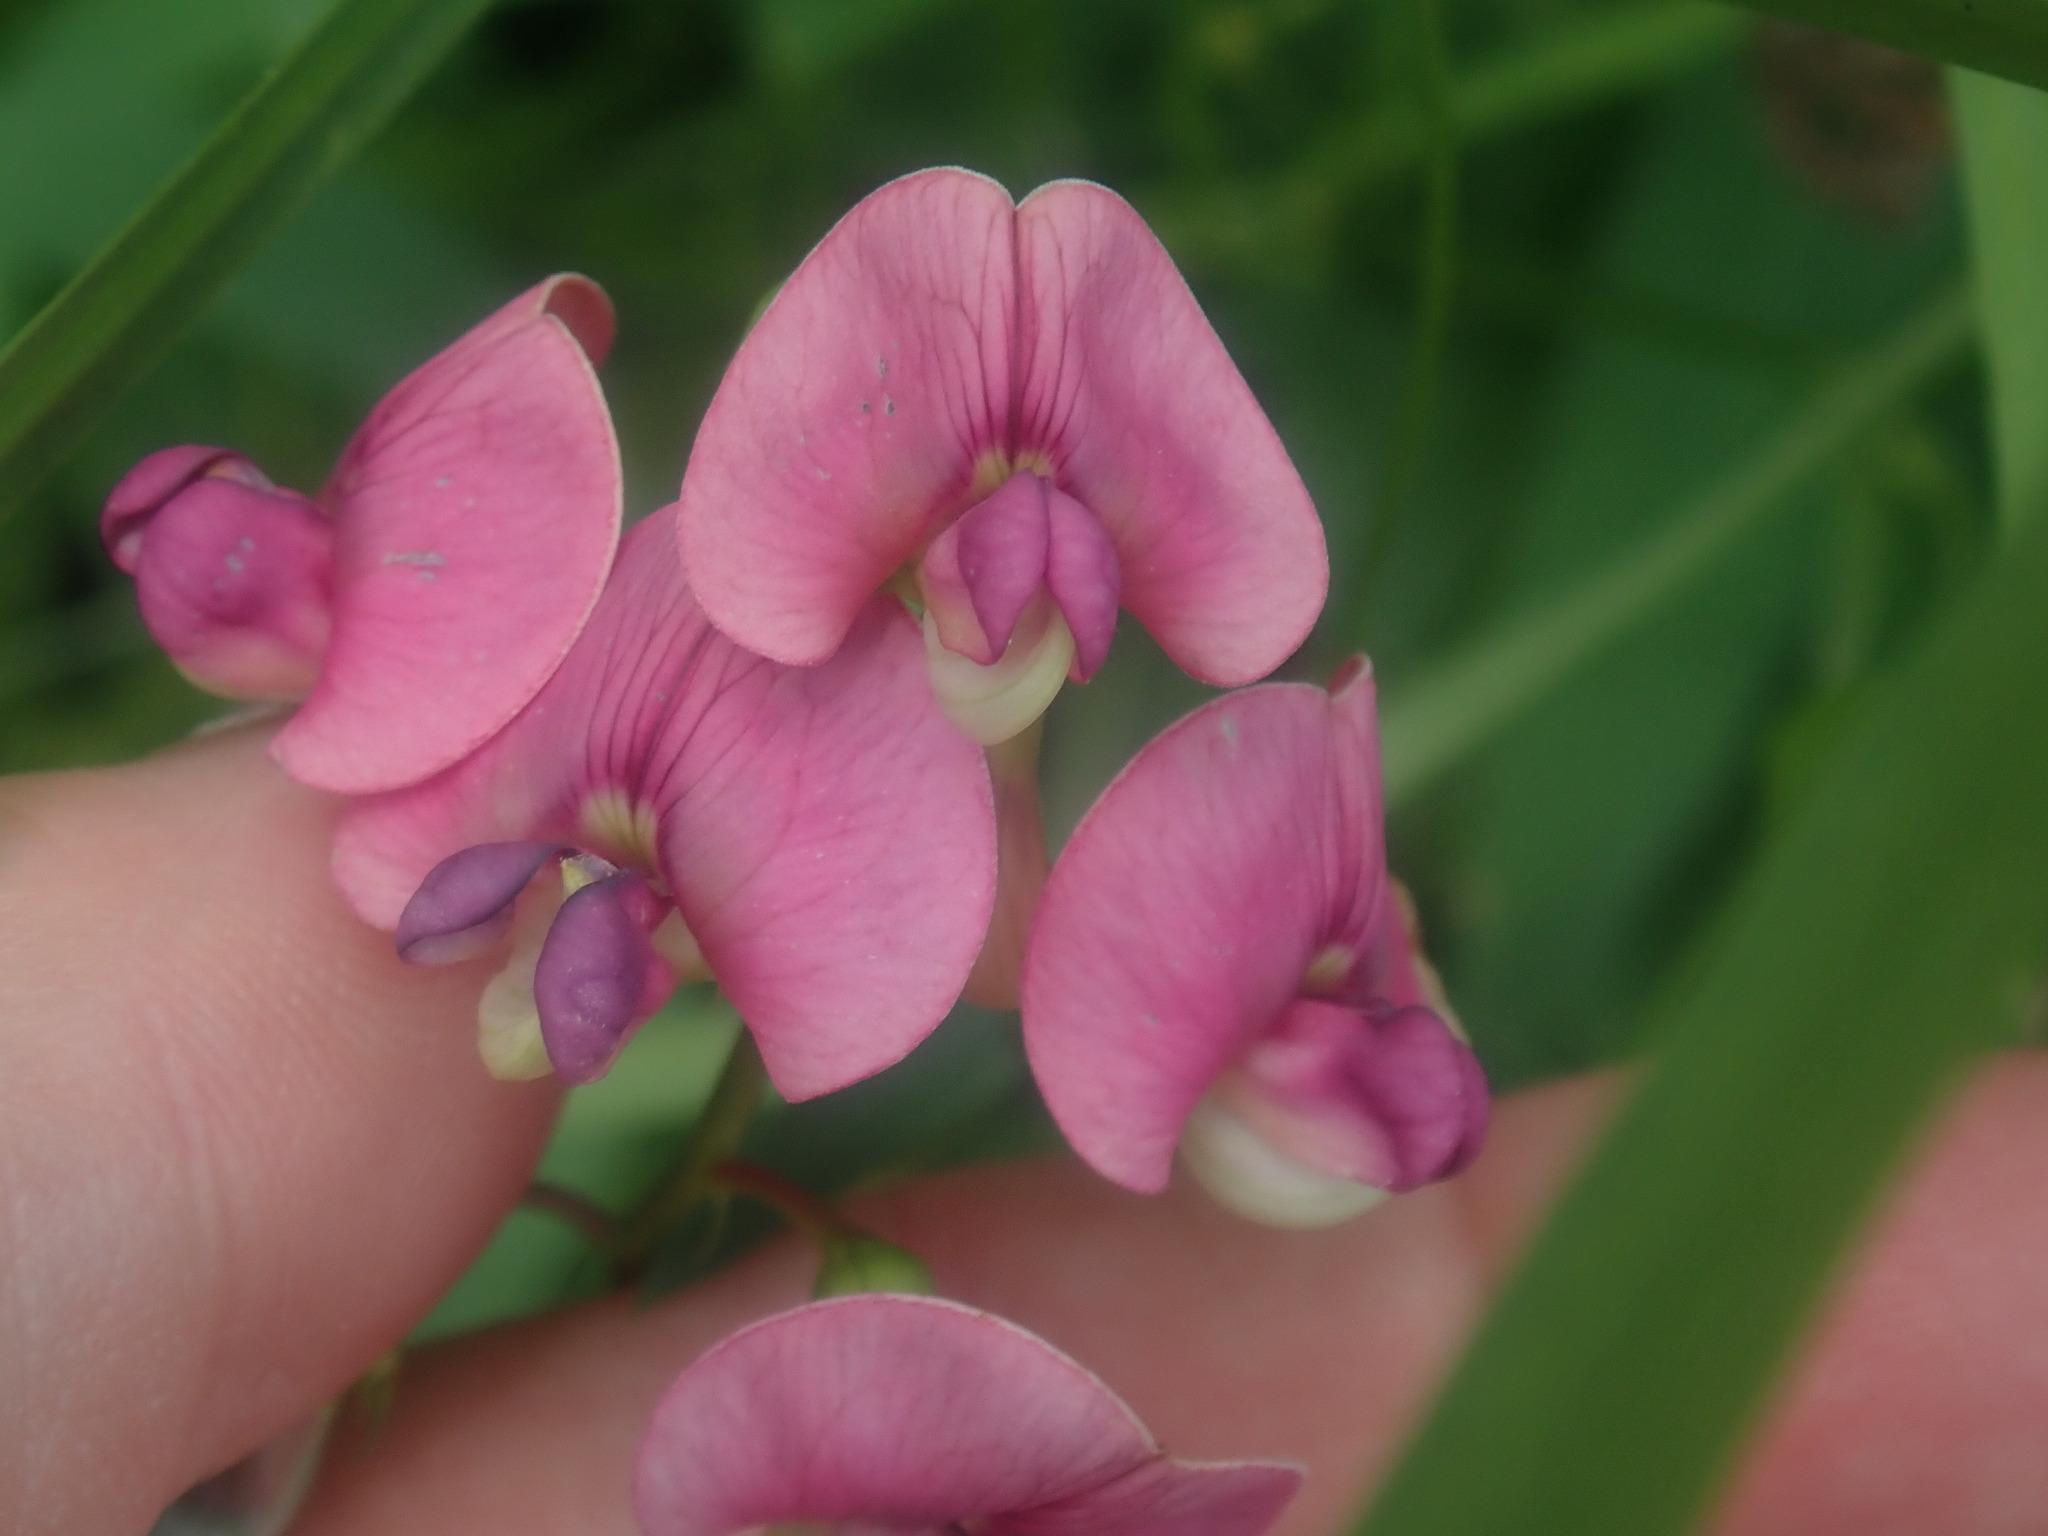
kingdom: Plantae
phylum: Tracheophyta
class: Magnoliopsida
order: Fabales
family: Fabaceae
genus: Lathyrus
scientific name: Lathyrus sylvestris
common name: Flat pea
